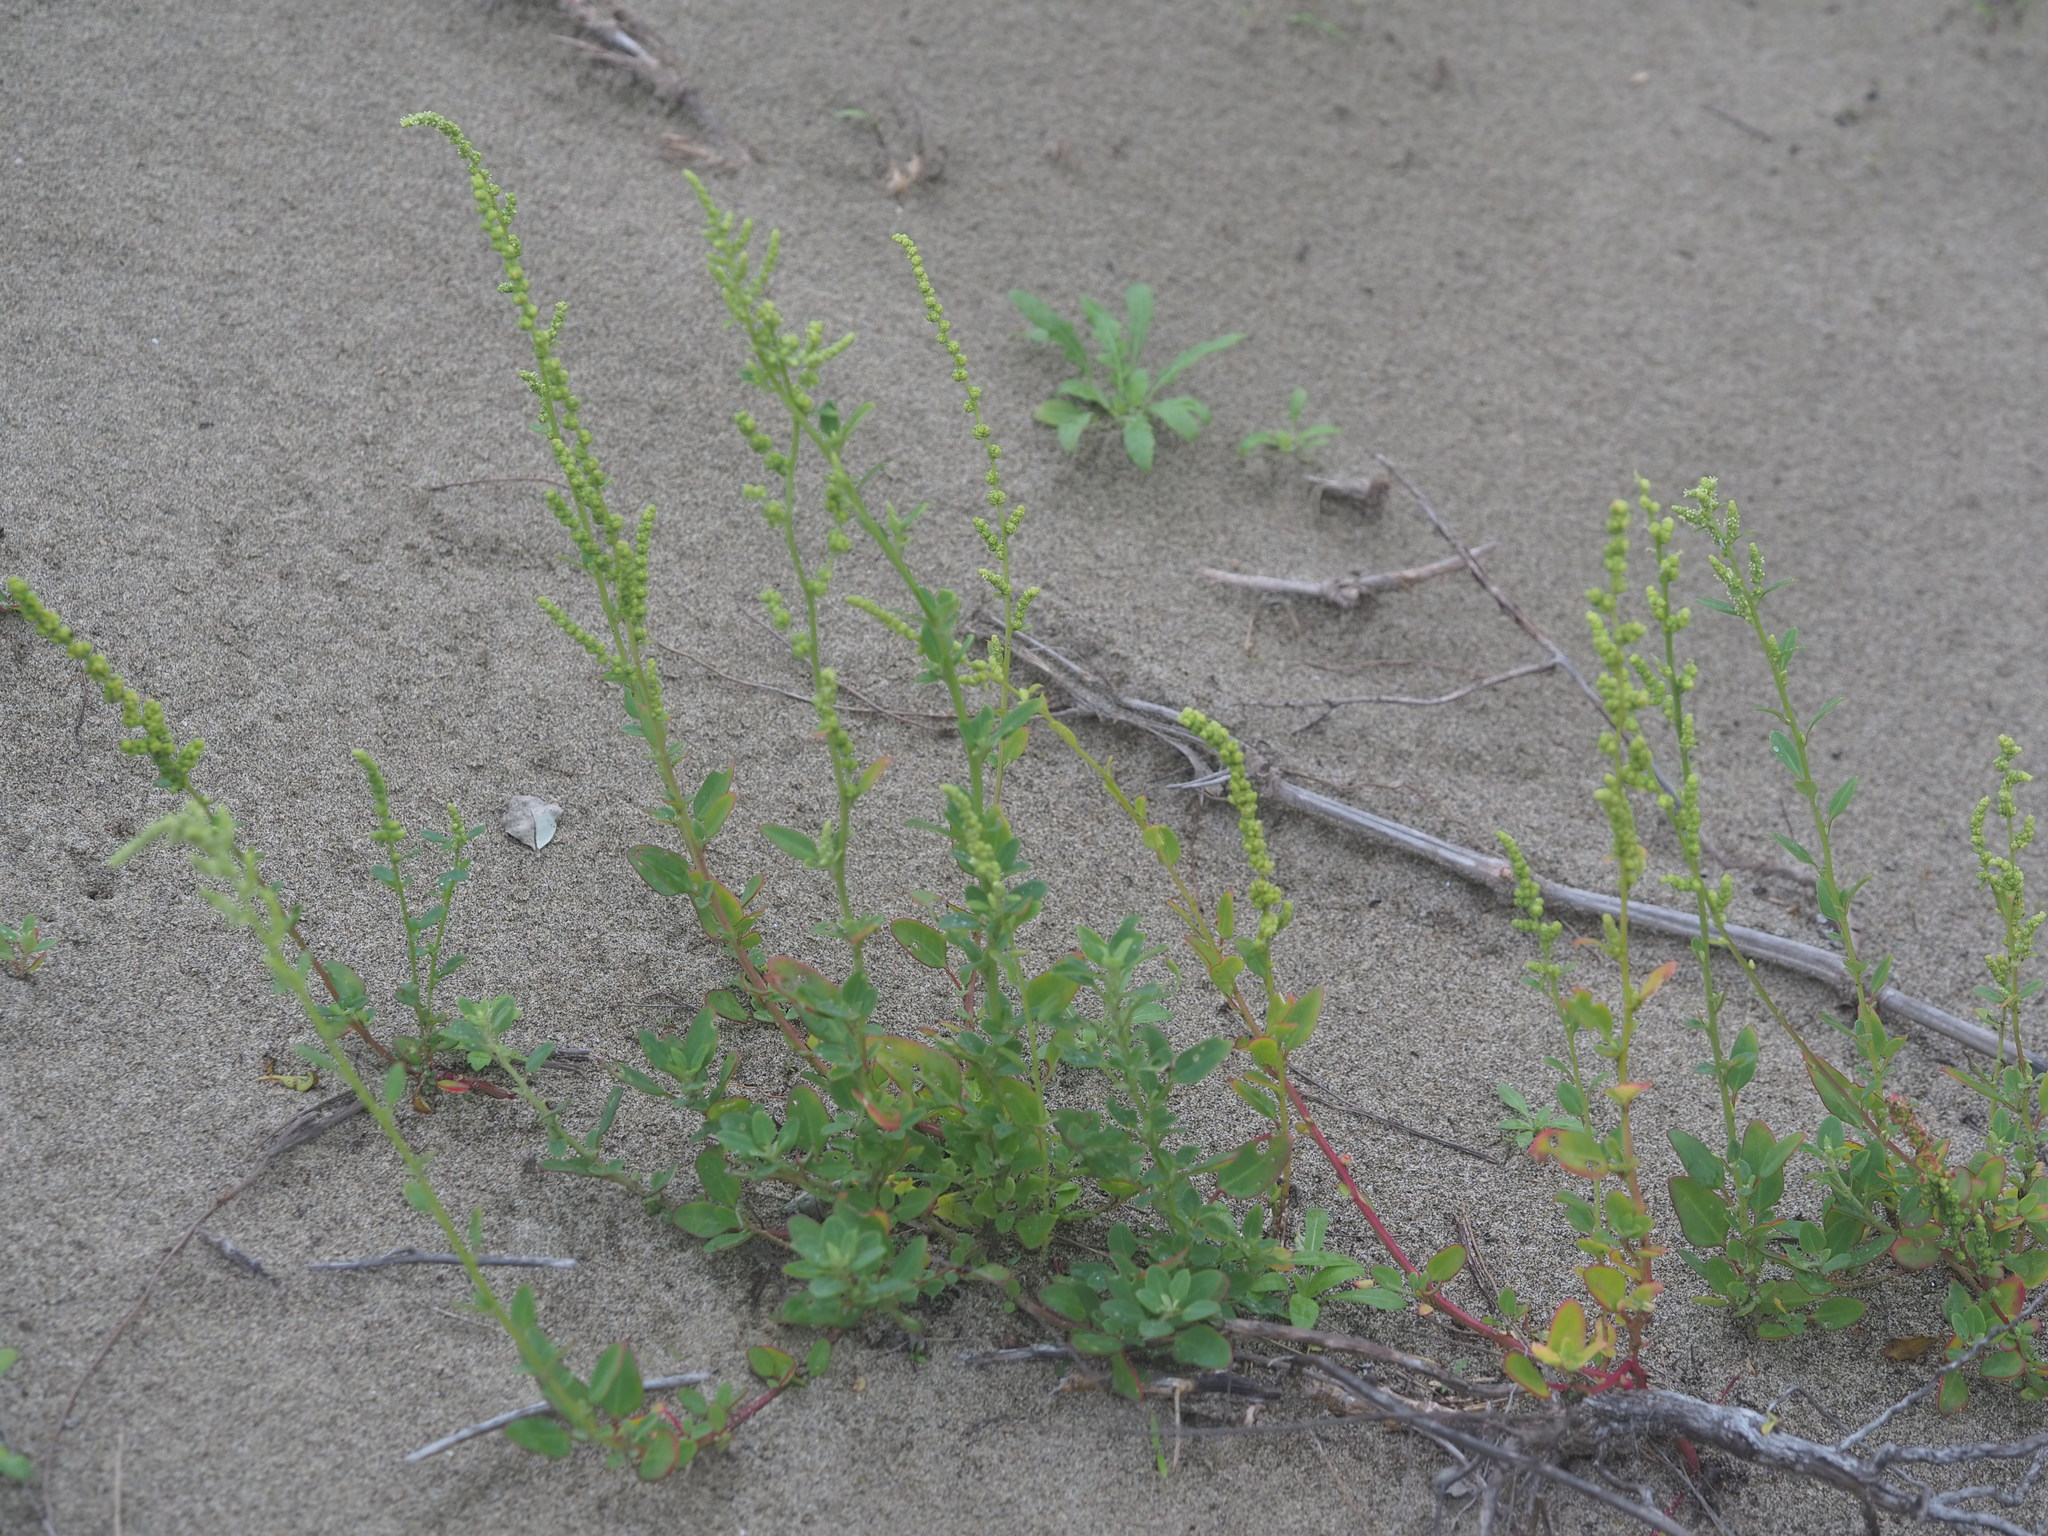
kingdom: Plantae
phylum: Tracheophyta
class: Magnoliopsida
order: Caryophyllales
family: Amaranthaceae
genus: Chenopodium
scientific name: Chenopodium acuminatum
